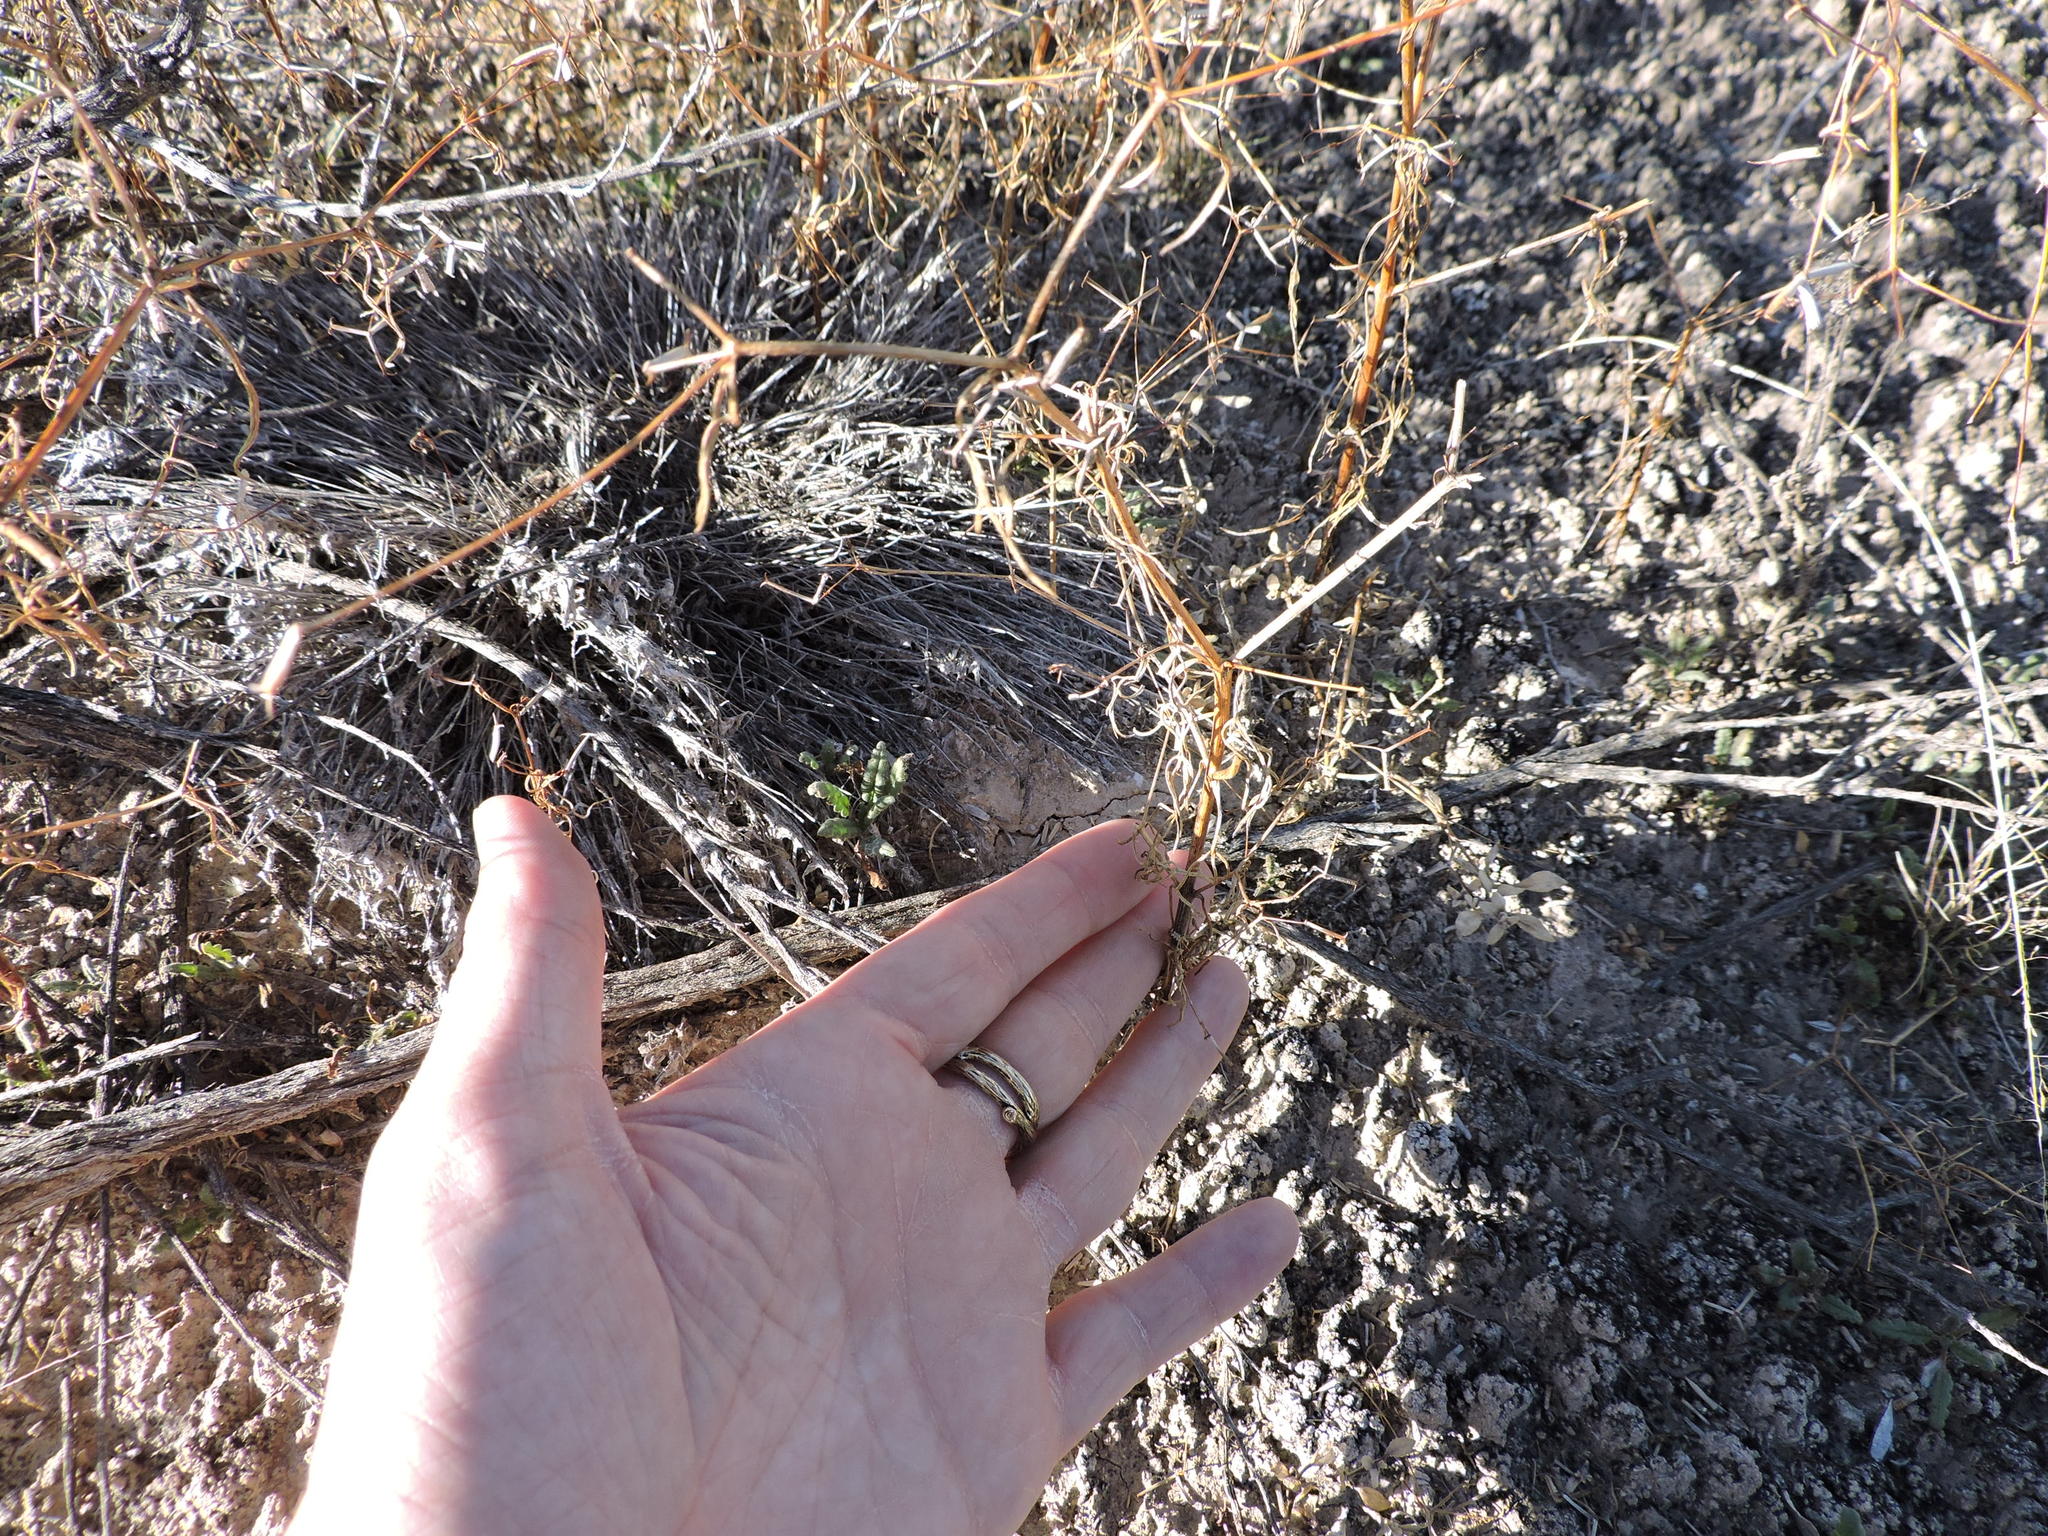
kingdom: Plantae
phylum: Tracheophyta
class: Magnoliopsida
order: Asterales
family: Asteraceae
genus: Dicranocarpus
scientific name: Dicranocarpus parviflorus
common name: Pitchfork
